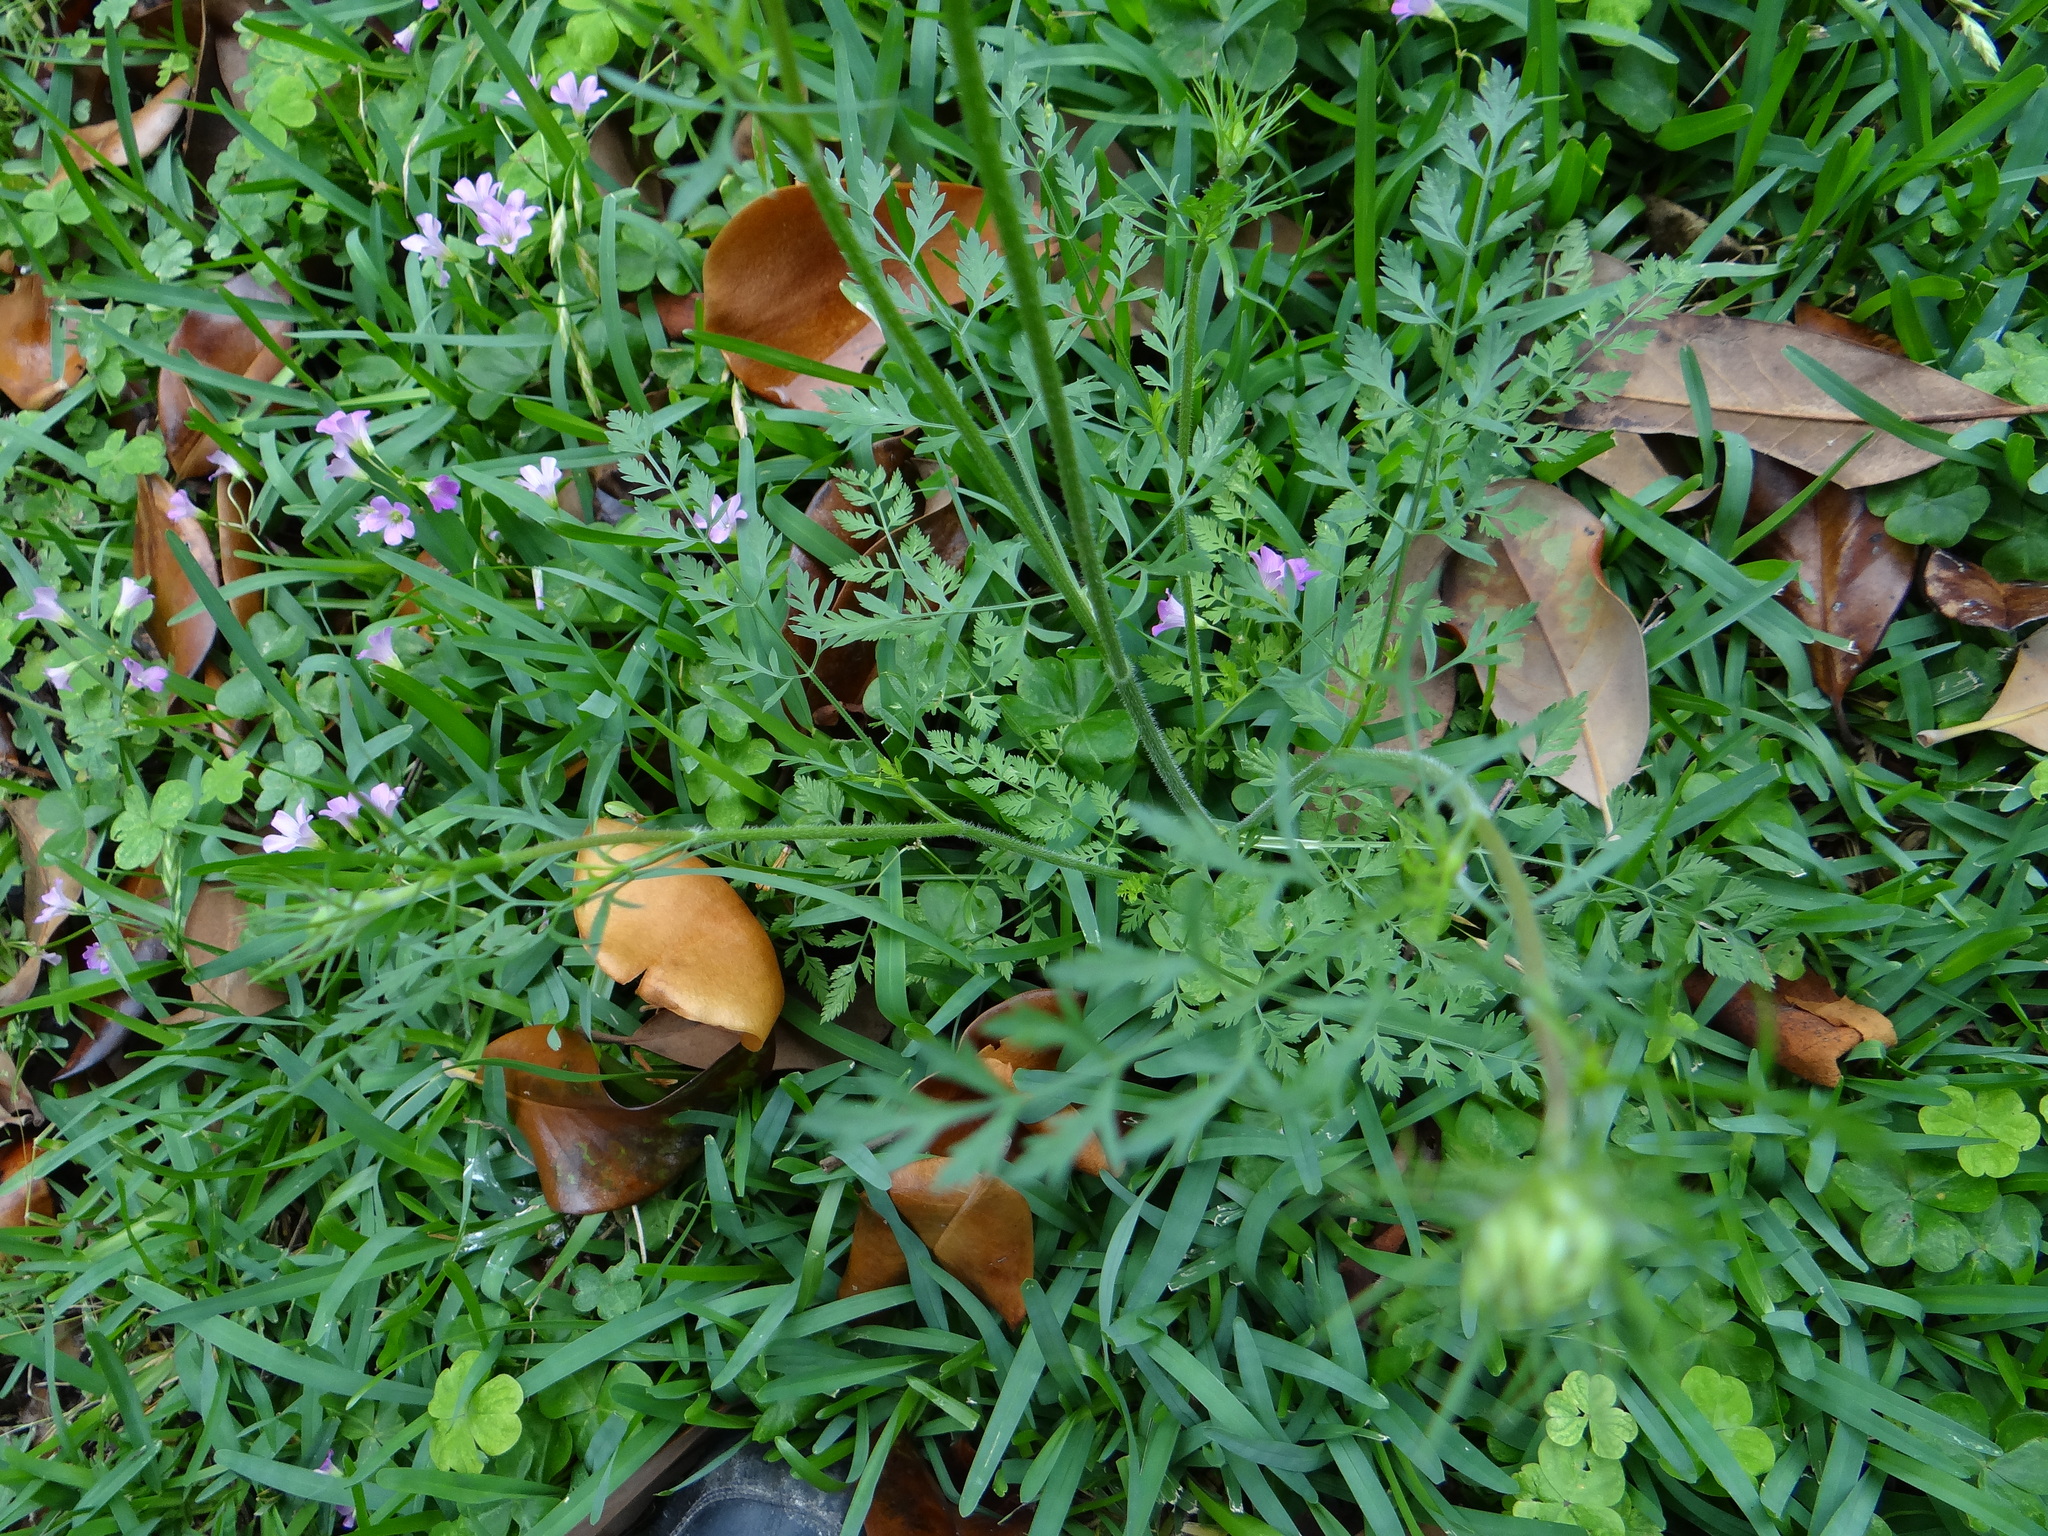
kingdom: Plantae
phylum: Tracheophyta
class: Magnoliopsida
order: Apiales
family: Apiaceae
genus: Daucus
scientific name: Daucus carota
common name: Wild carrot
